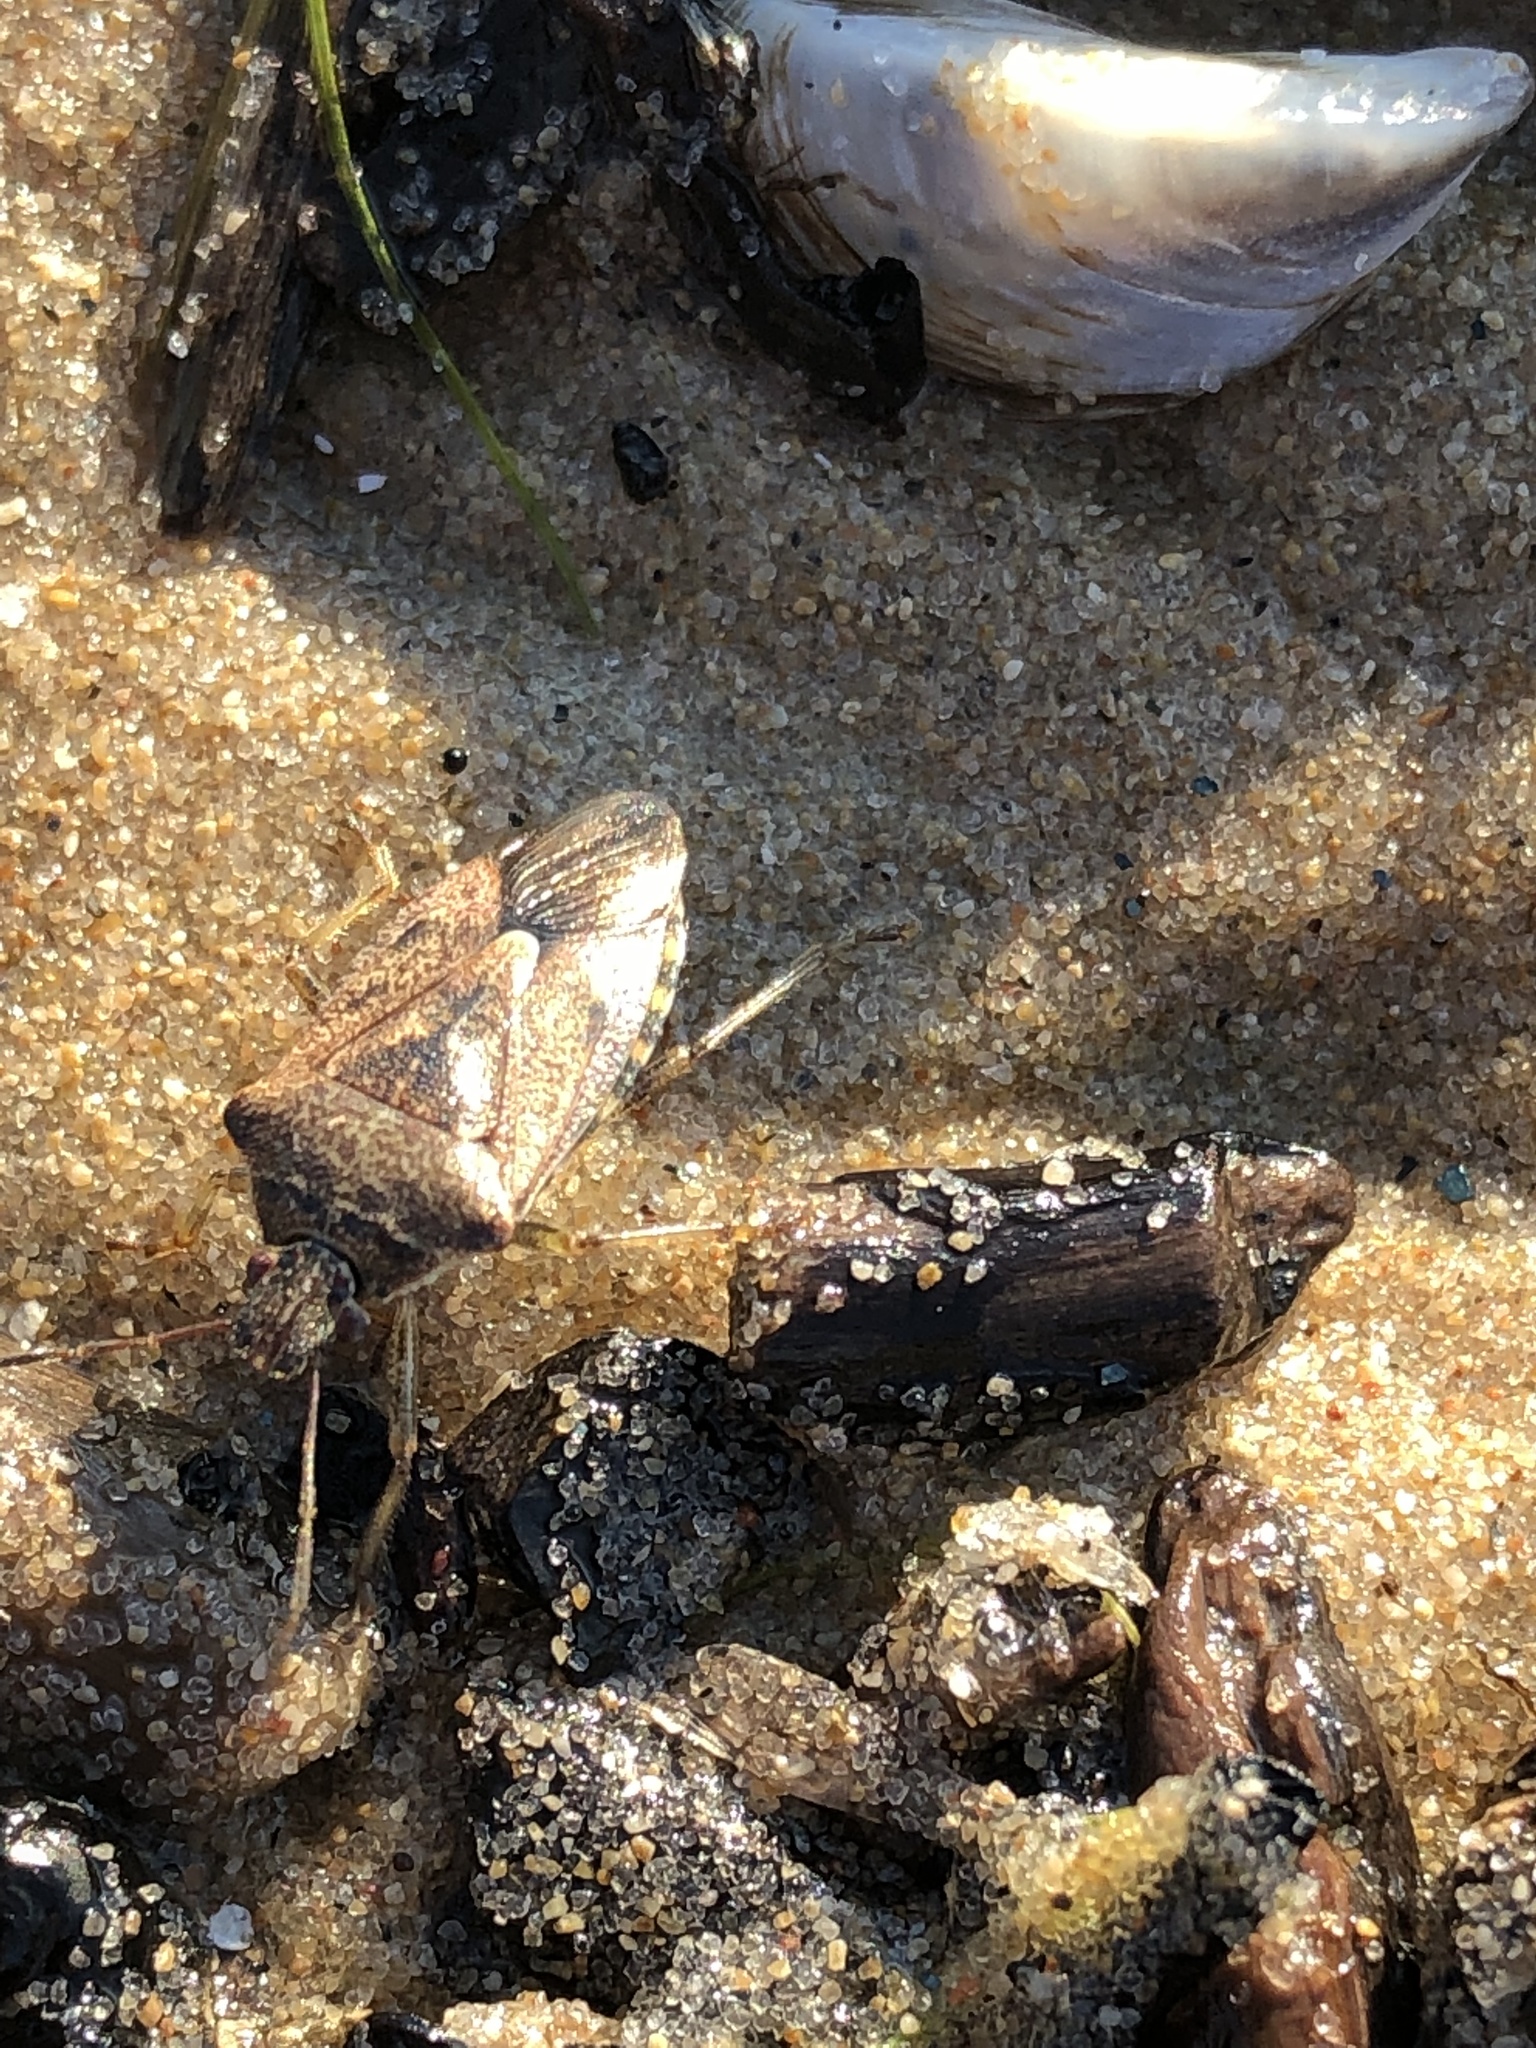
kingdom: Animalia
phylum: Arthropoda
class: Insecta
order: Hemiptera
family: Pentatomidae
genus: Podisus
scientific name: Podisus serieventris
